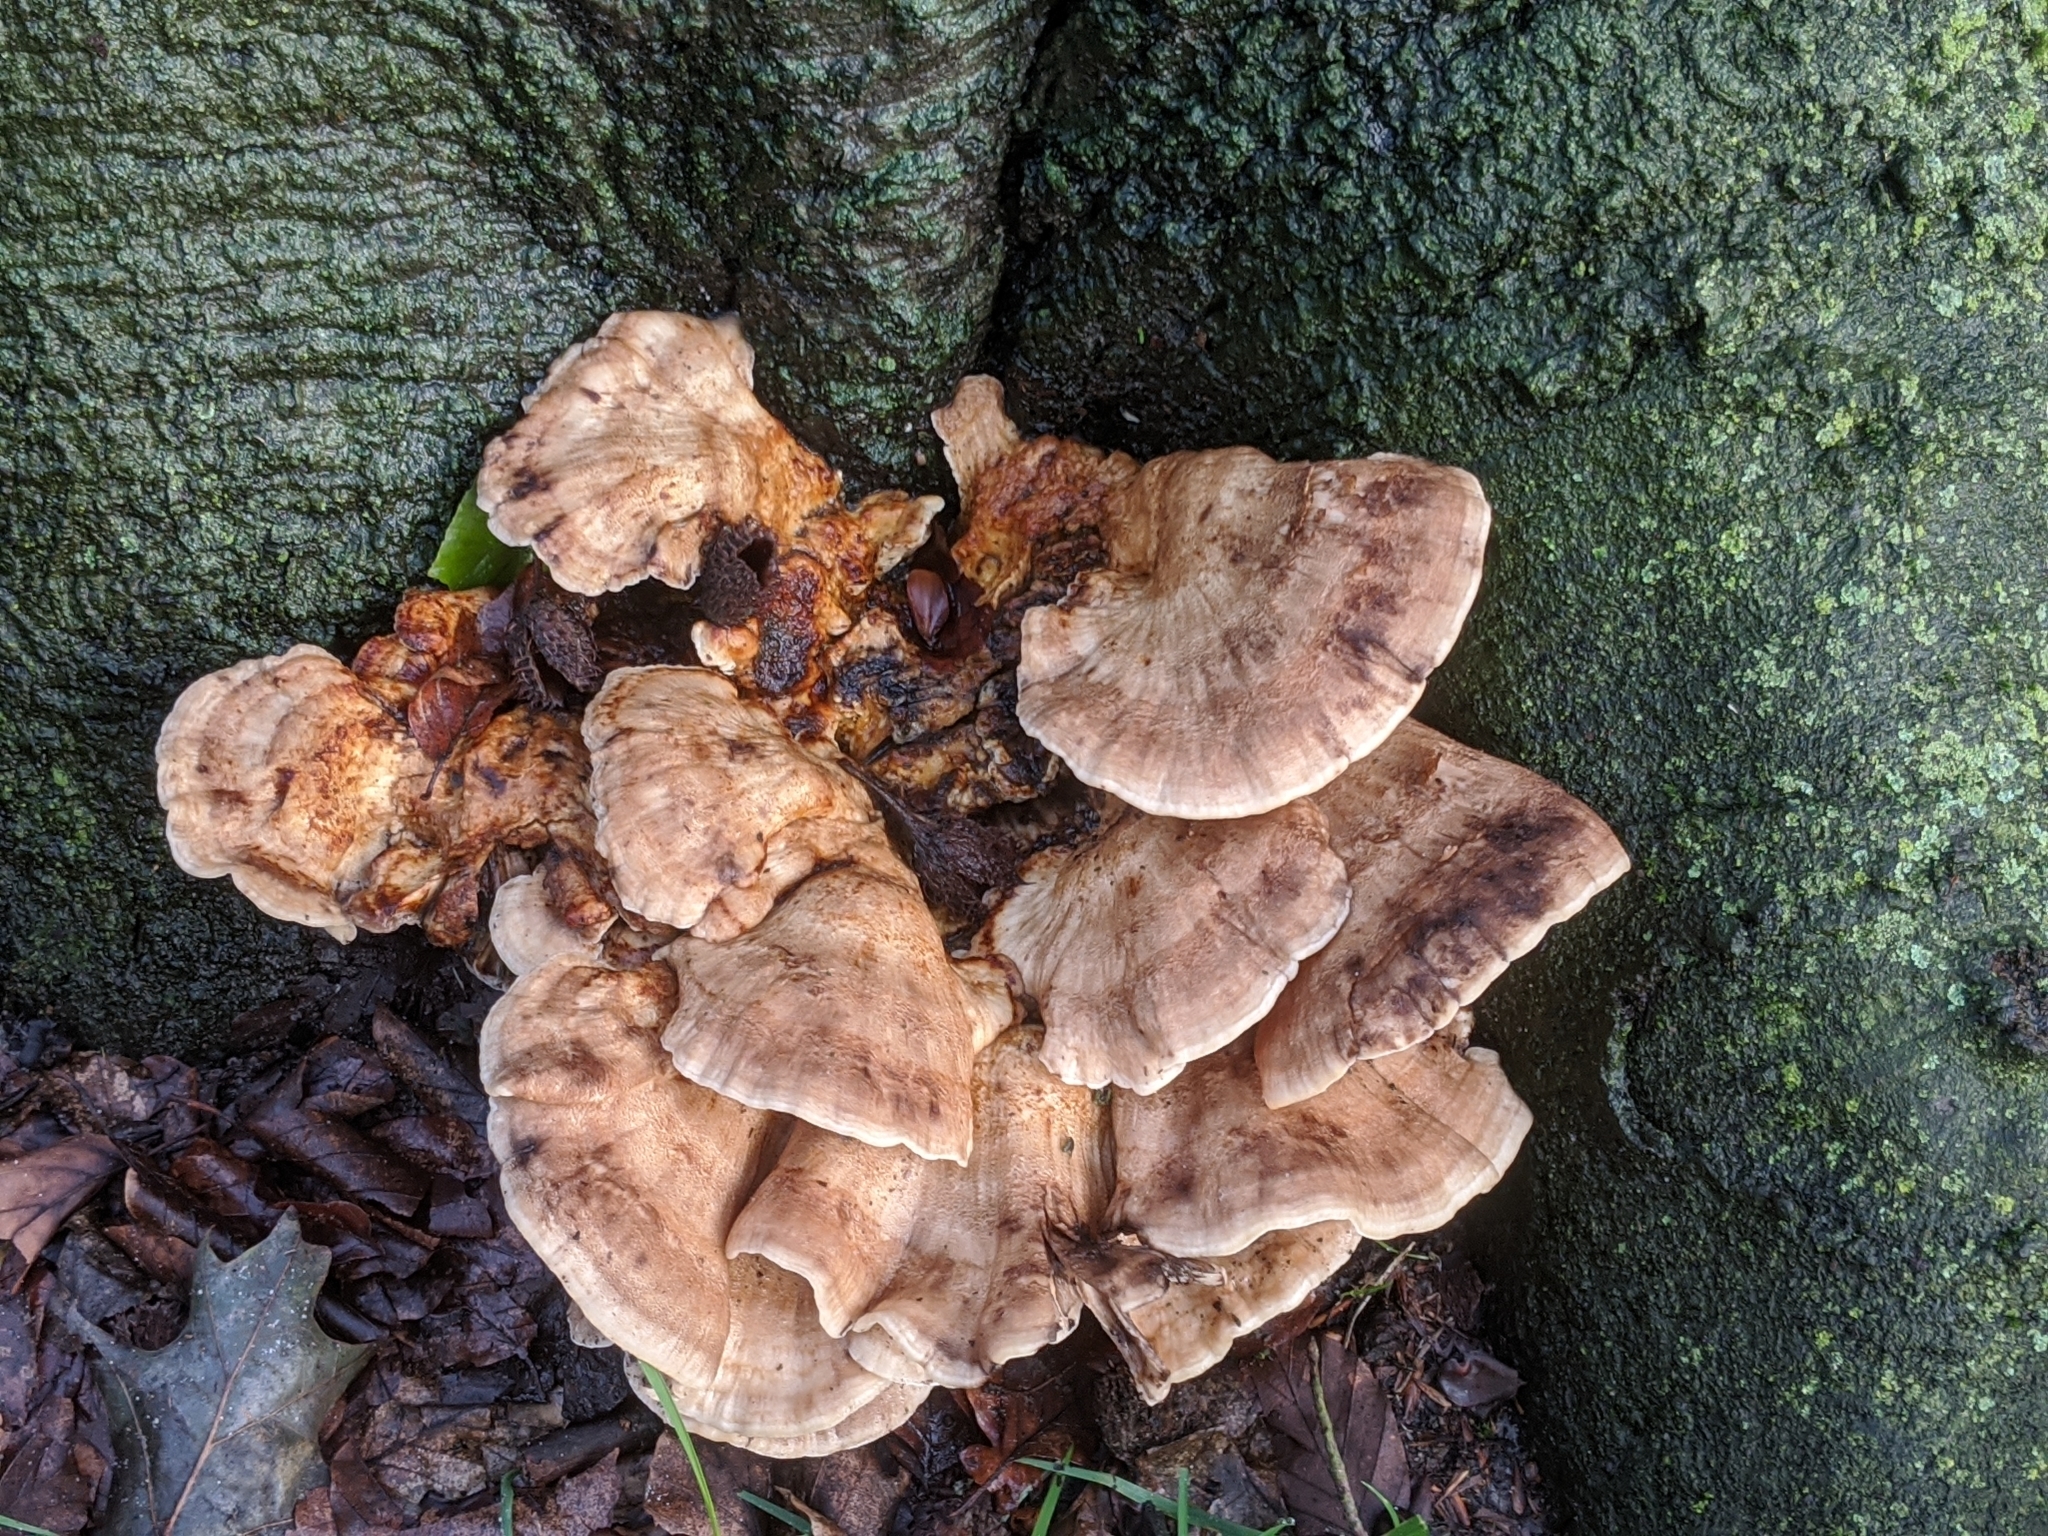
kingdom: Fungi
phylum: Basidiomycota
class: Agaricomycetes
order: Polyporales
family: Meripilaceae
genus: Meripilus
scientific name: Meripilus giganteus
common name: Giant polypore
